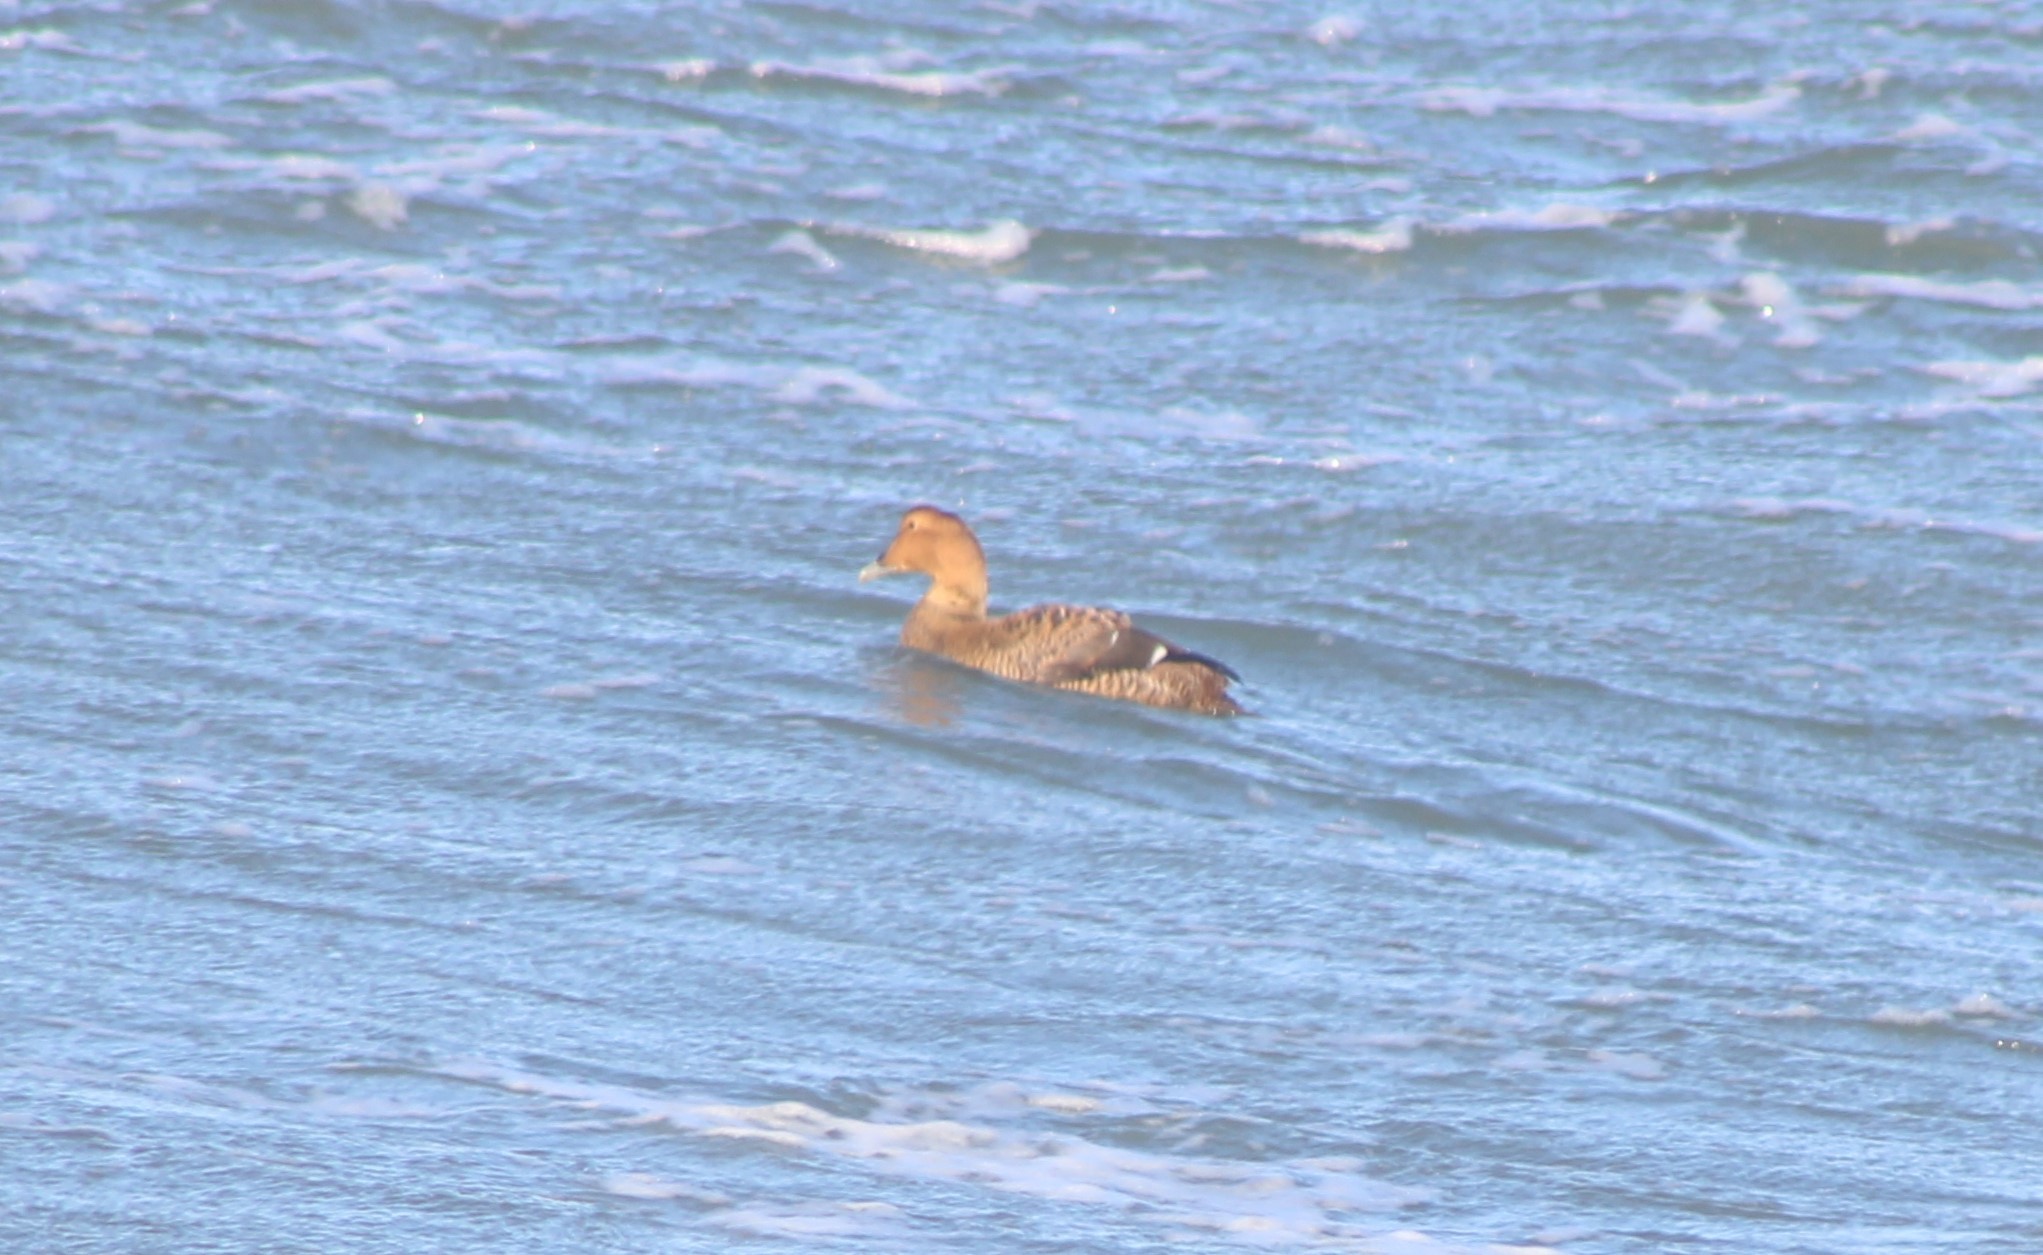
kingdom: Animalia
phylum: Chordata
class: Aves
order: Anseriformes
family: Anatidae
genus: Somateria
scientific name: Somateria mollissima
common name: Common eider
